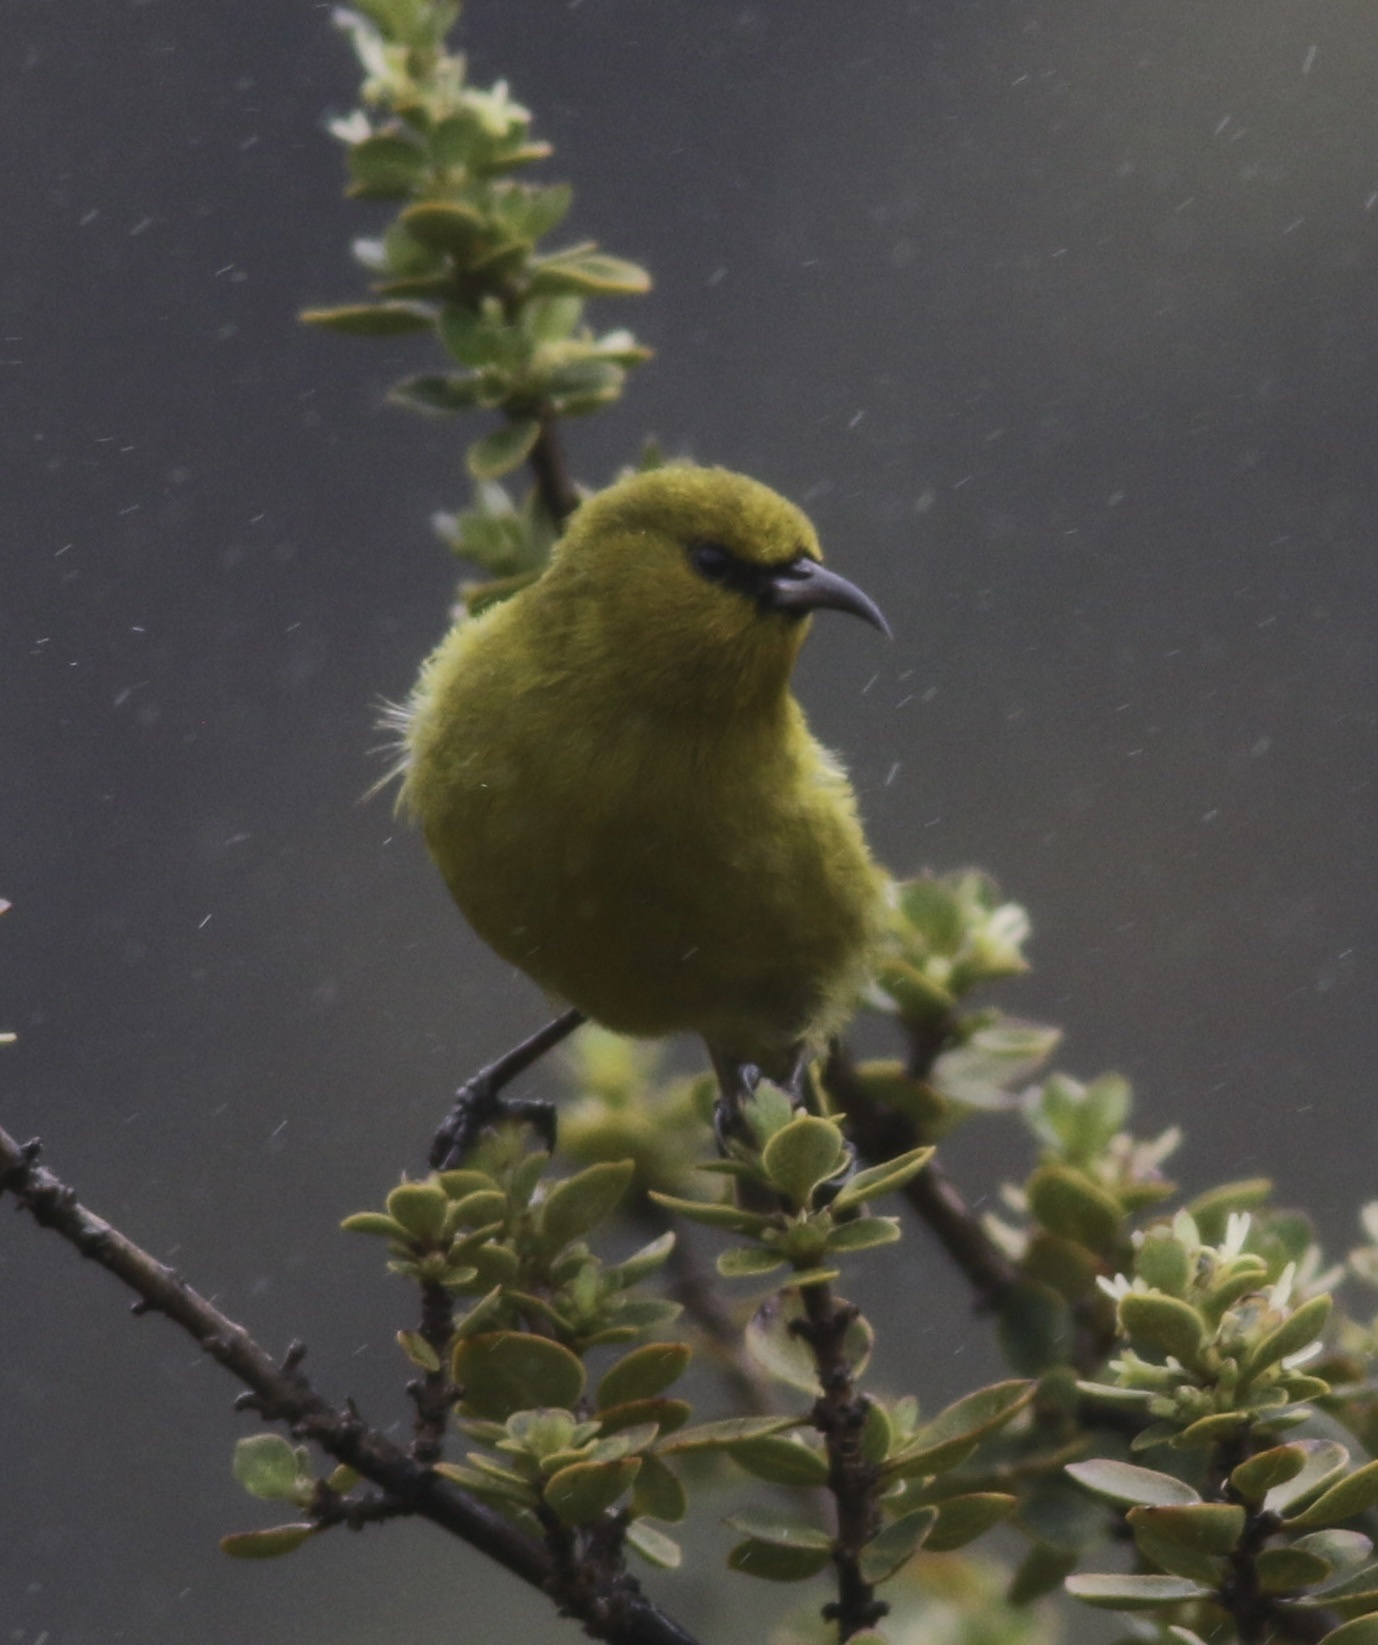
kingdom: Animalia
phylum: Chordata
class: Aves
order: Passeriformes
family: Fringillidae
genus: Chlorodrepanis
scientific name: Chlorodrepanis virens
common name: Hawaii amakihi
